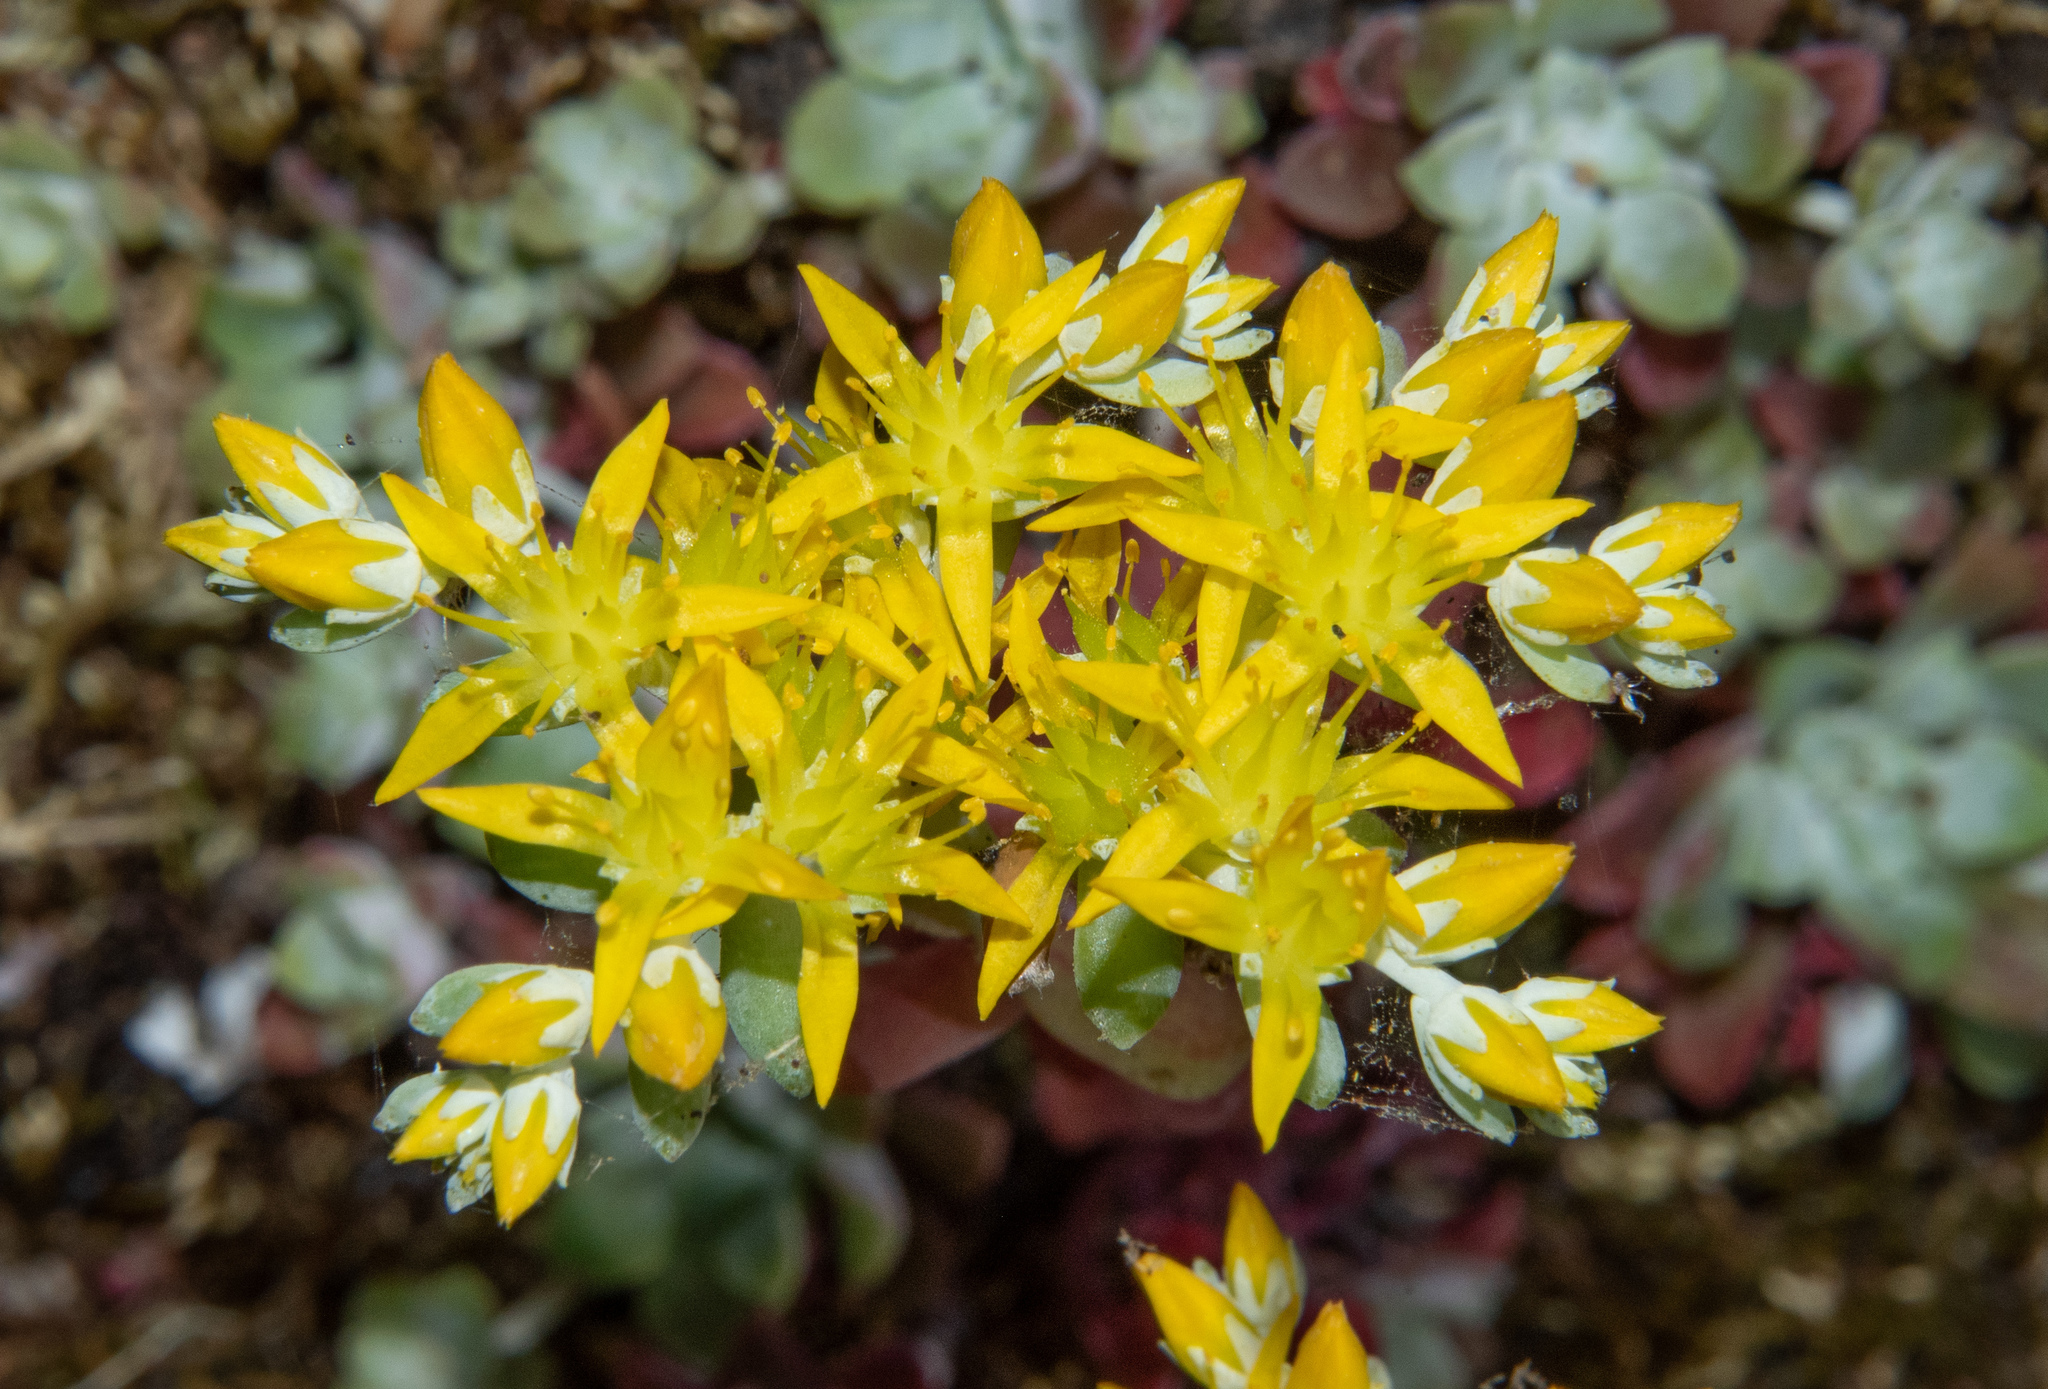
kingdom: Plantae
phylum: Tracheophyta
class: Magnoliopsida
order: Saxifragales
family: Crassulaceae
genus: Sedum
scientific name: Sedum spathulifolium
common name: Colorado stonecrop
